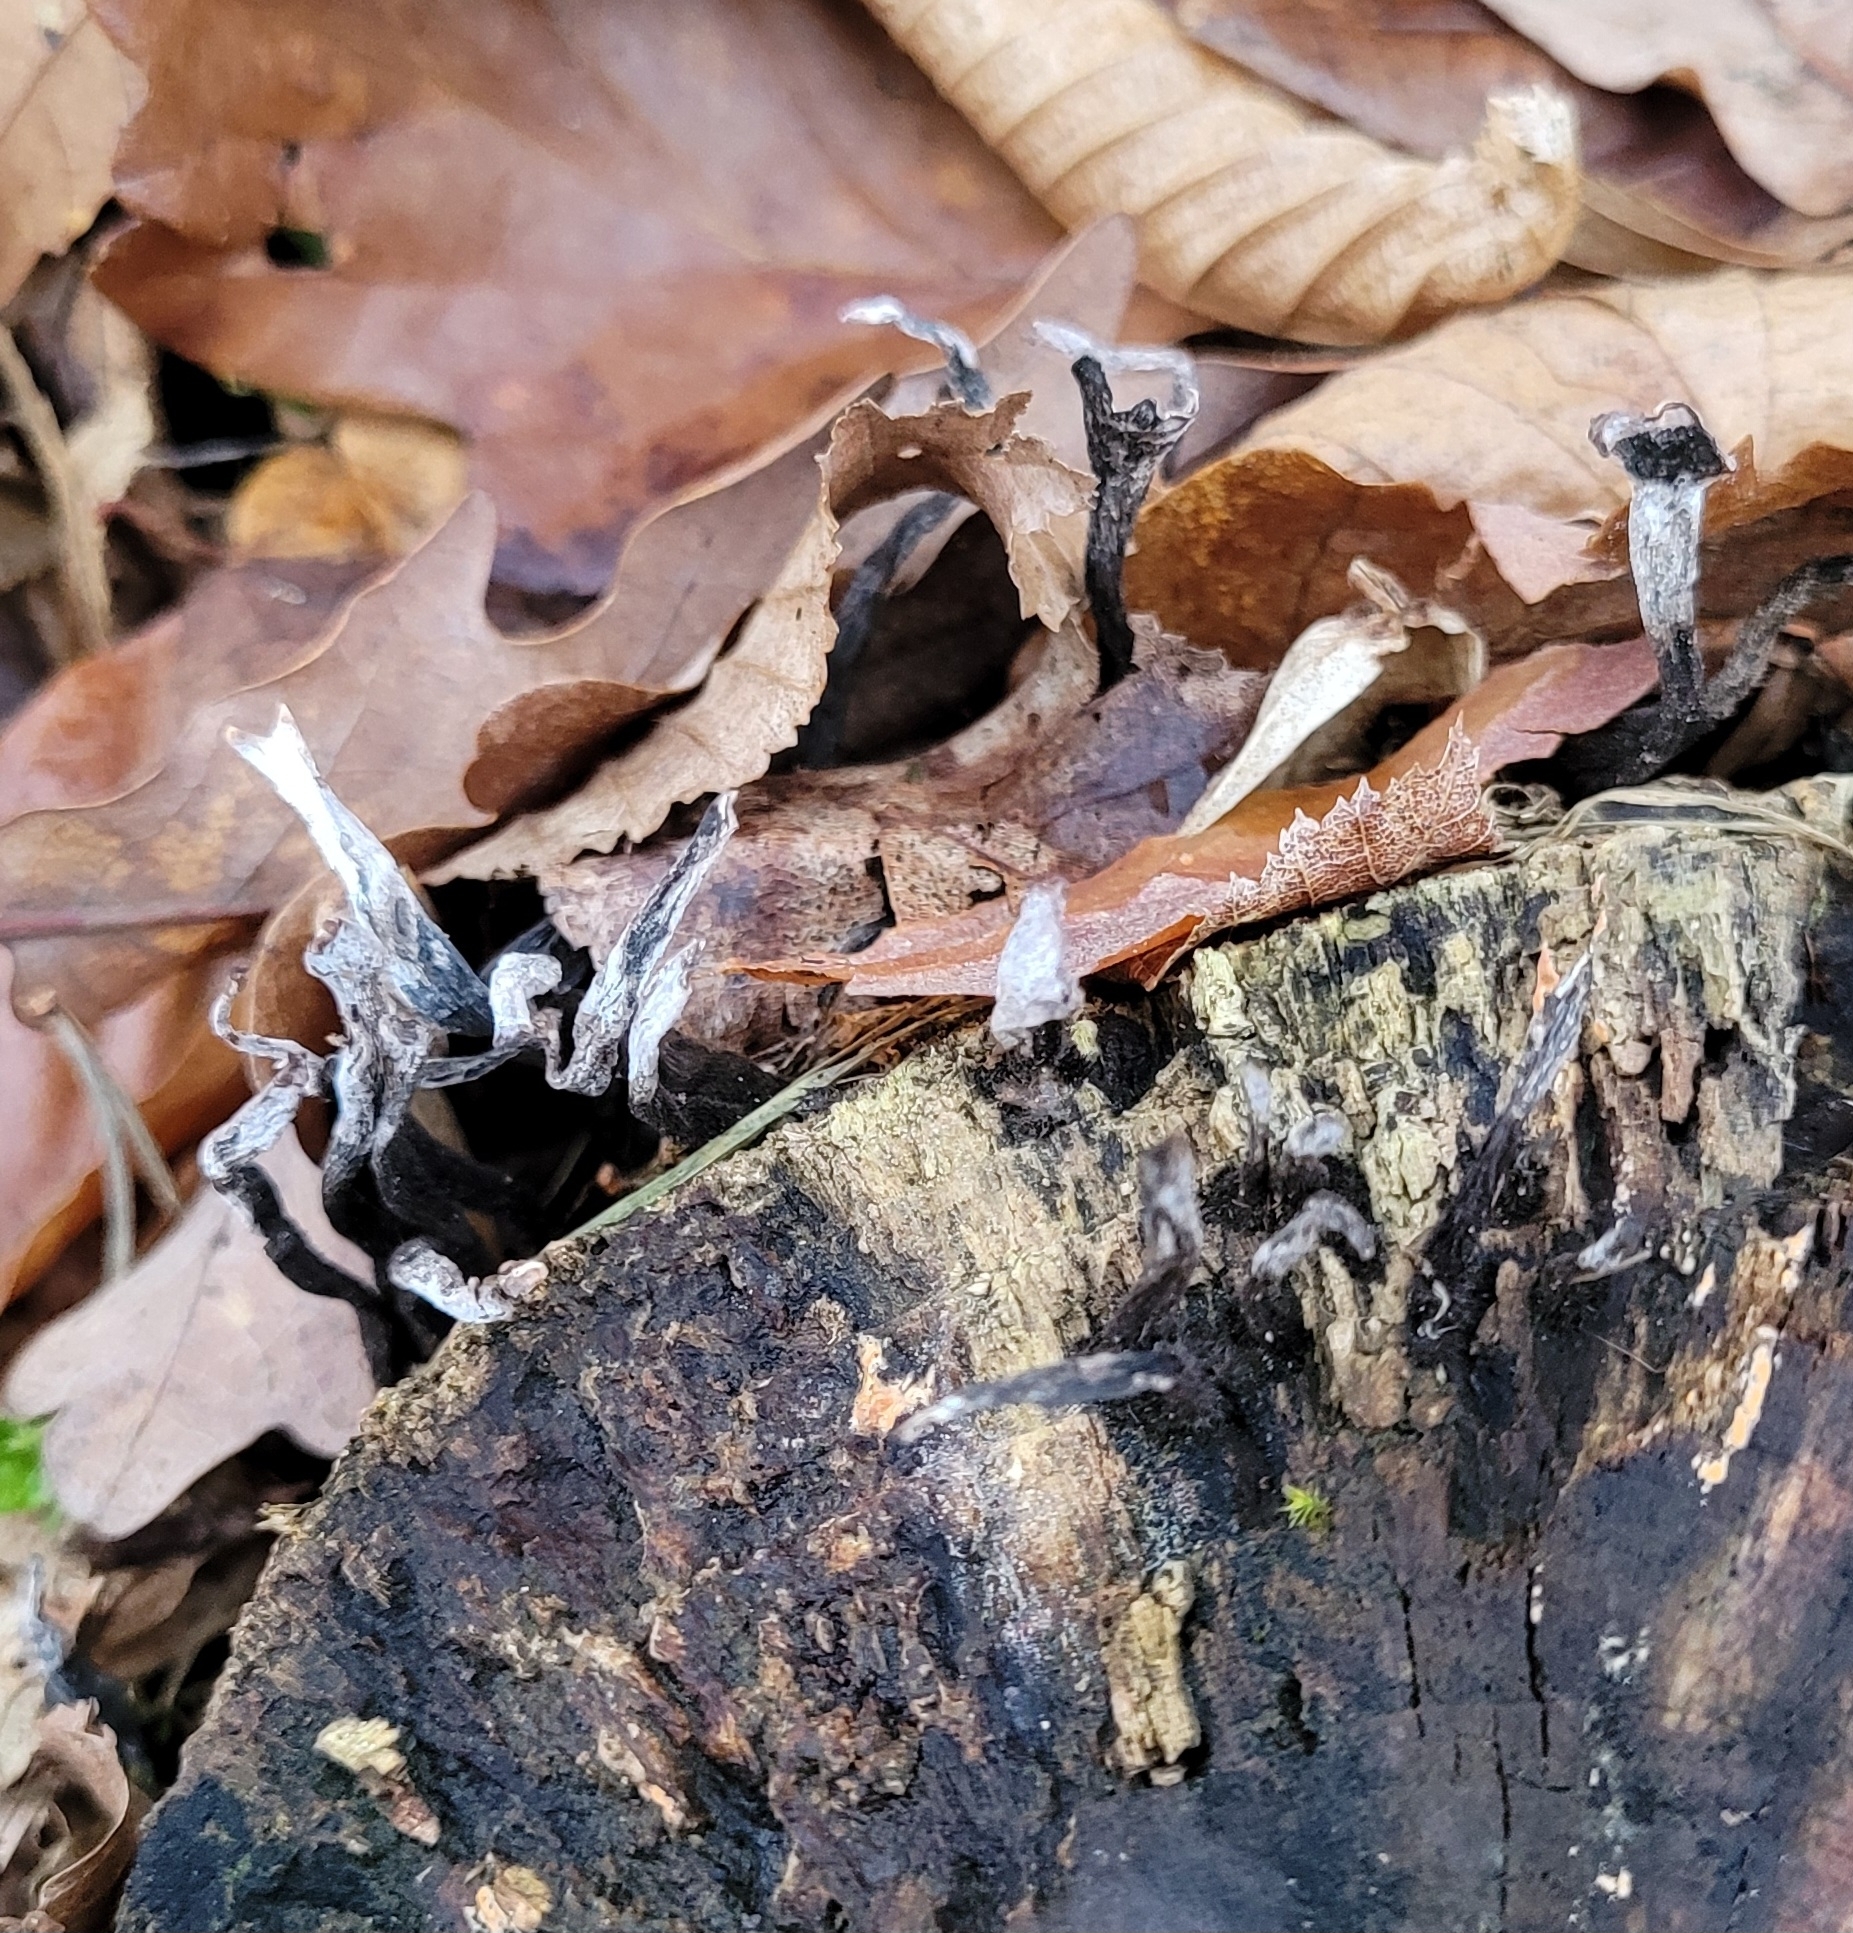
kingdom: Fungi
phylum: Ascomycota
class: Sordariomycetes
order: Xylariales
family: Xylariaceae
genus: Xylaria
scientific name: Xylaria hypoxylon
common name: Candle-snuff fungus
